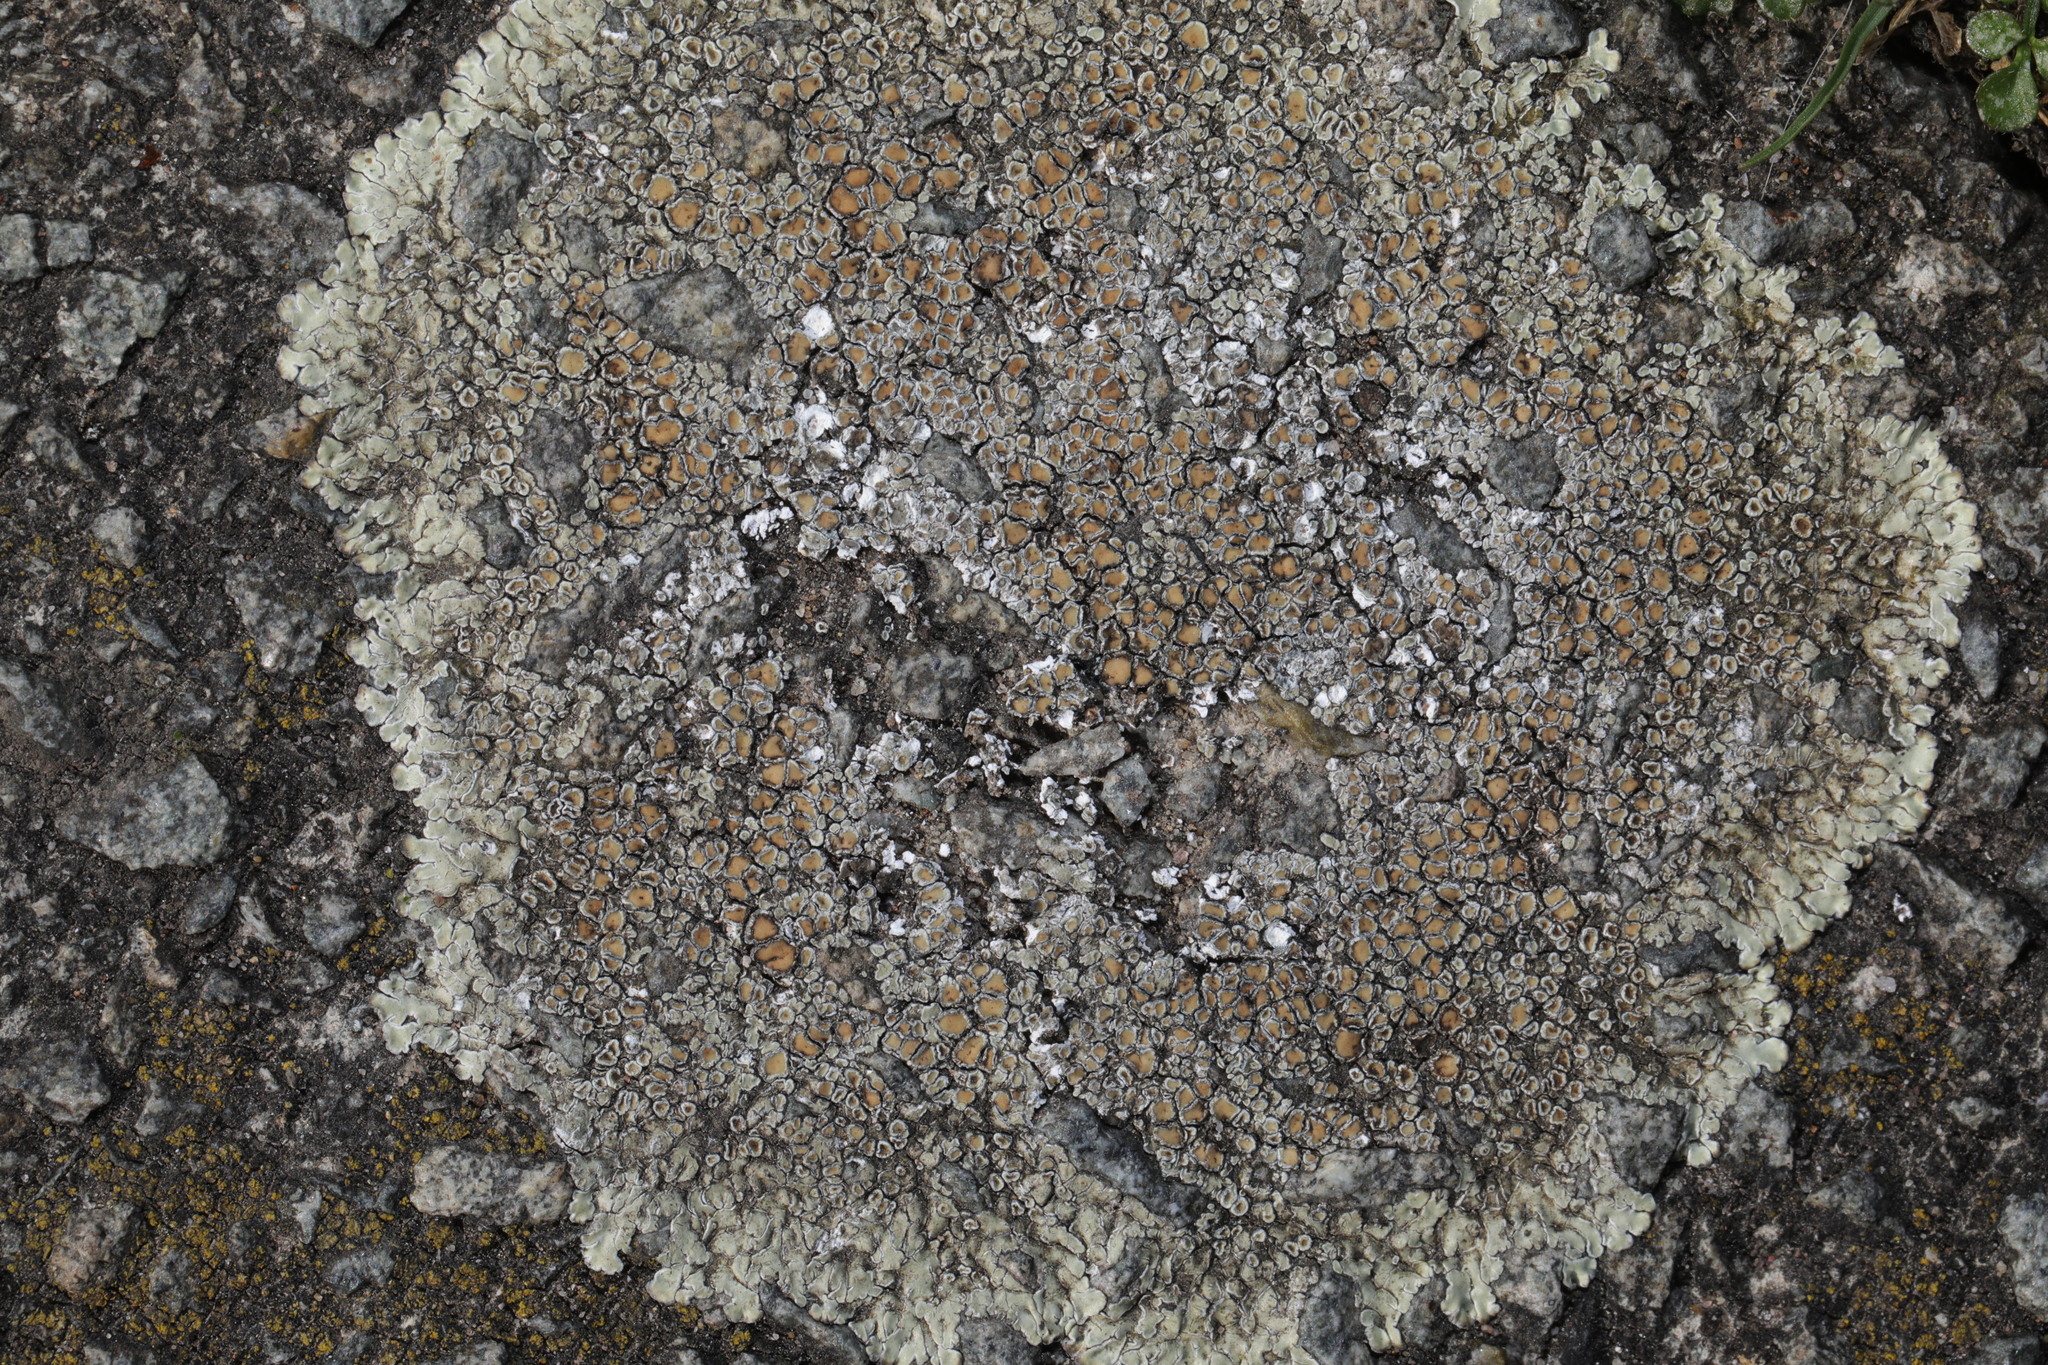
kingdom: Fungi
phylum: Ascomycota
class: Lecanoromycetes
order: Lecanorales
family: Lecanoraceae
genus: Protoparmeliopsis
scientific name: Protoparmeliopsis muralis
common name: Stonewall rim lichen
